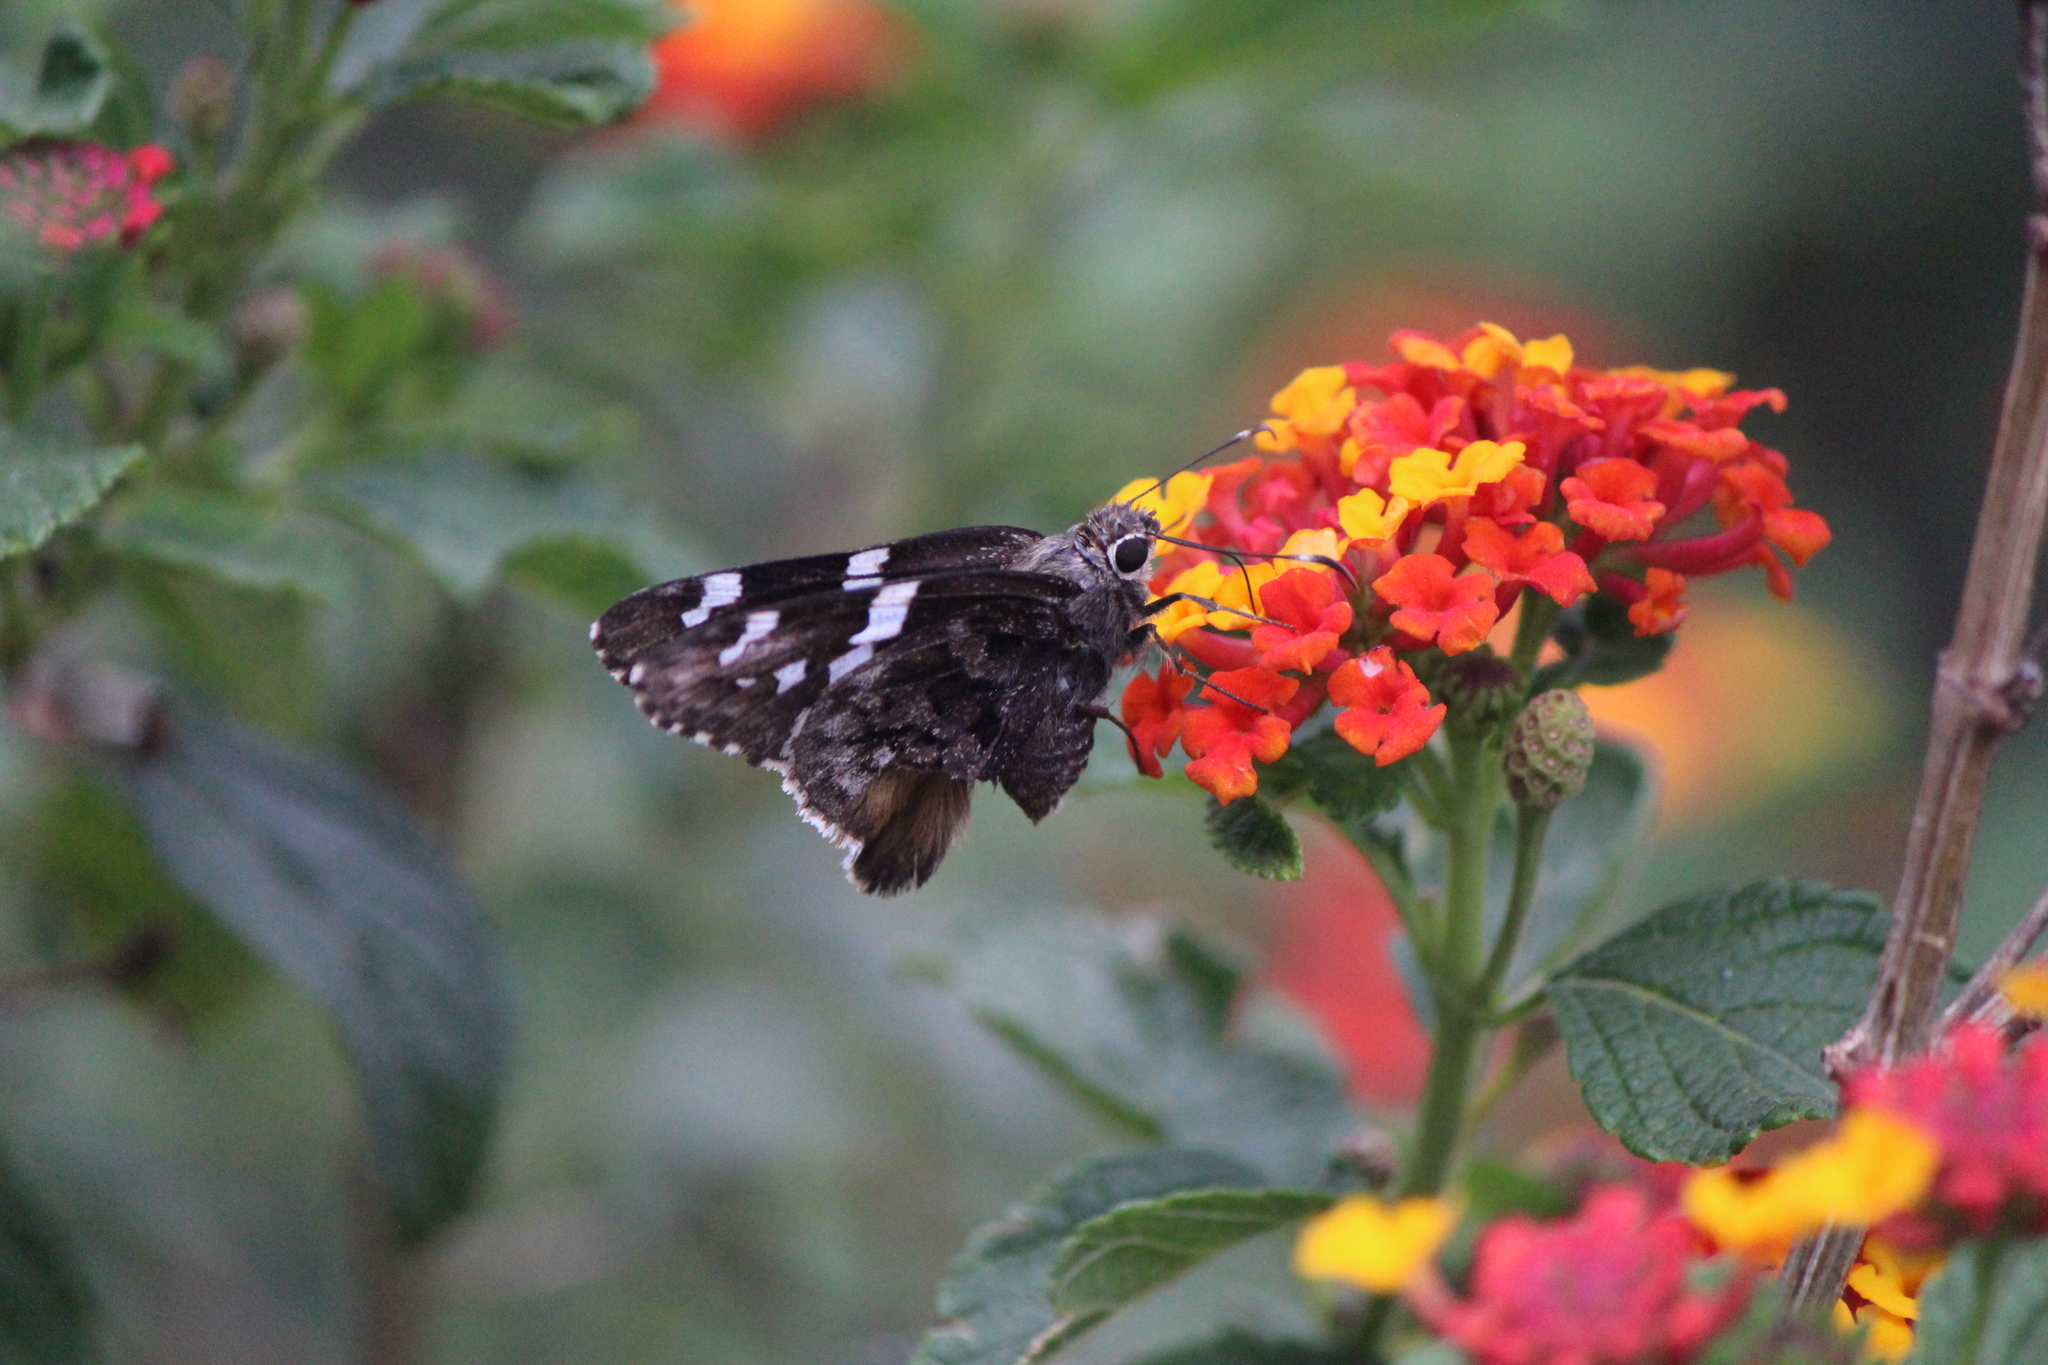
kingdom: Animalia
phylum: Arthropoda
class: Insecta
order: Lepidoptera
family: Hesperiidae
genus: Codatractus
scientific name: Codatractus bryaxis
